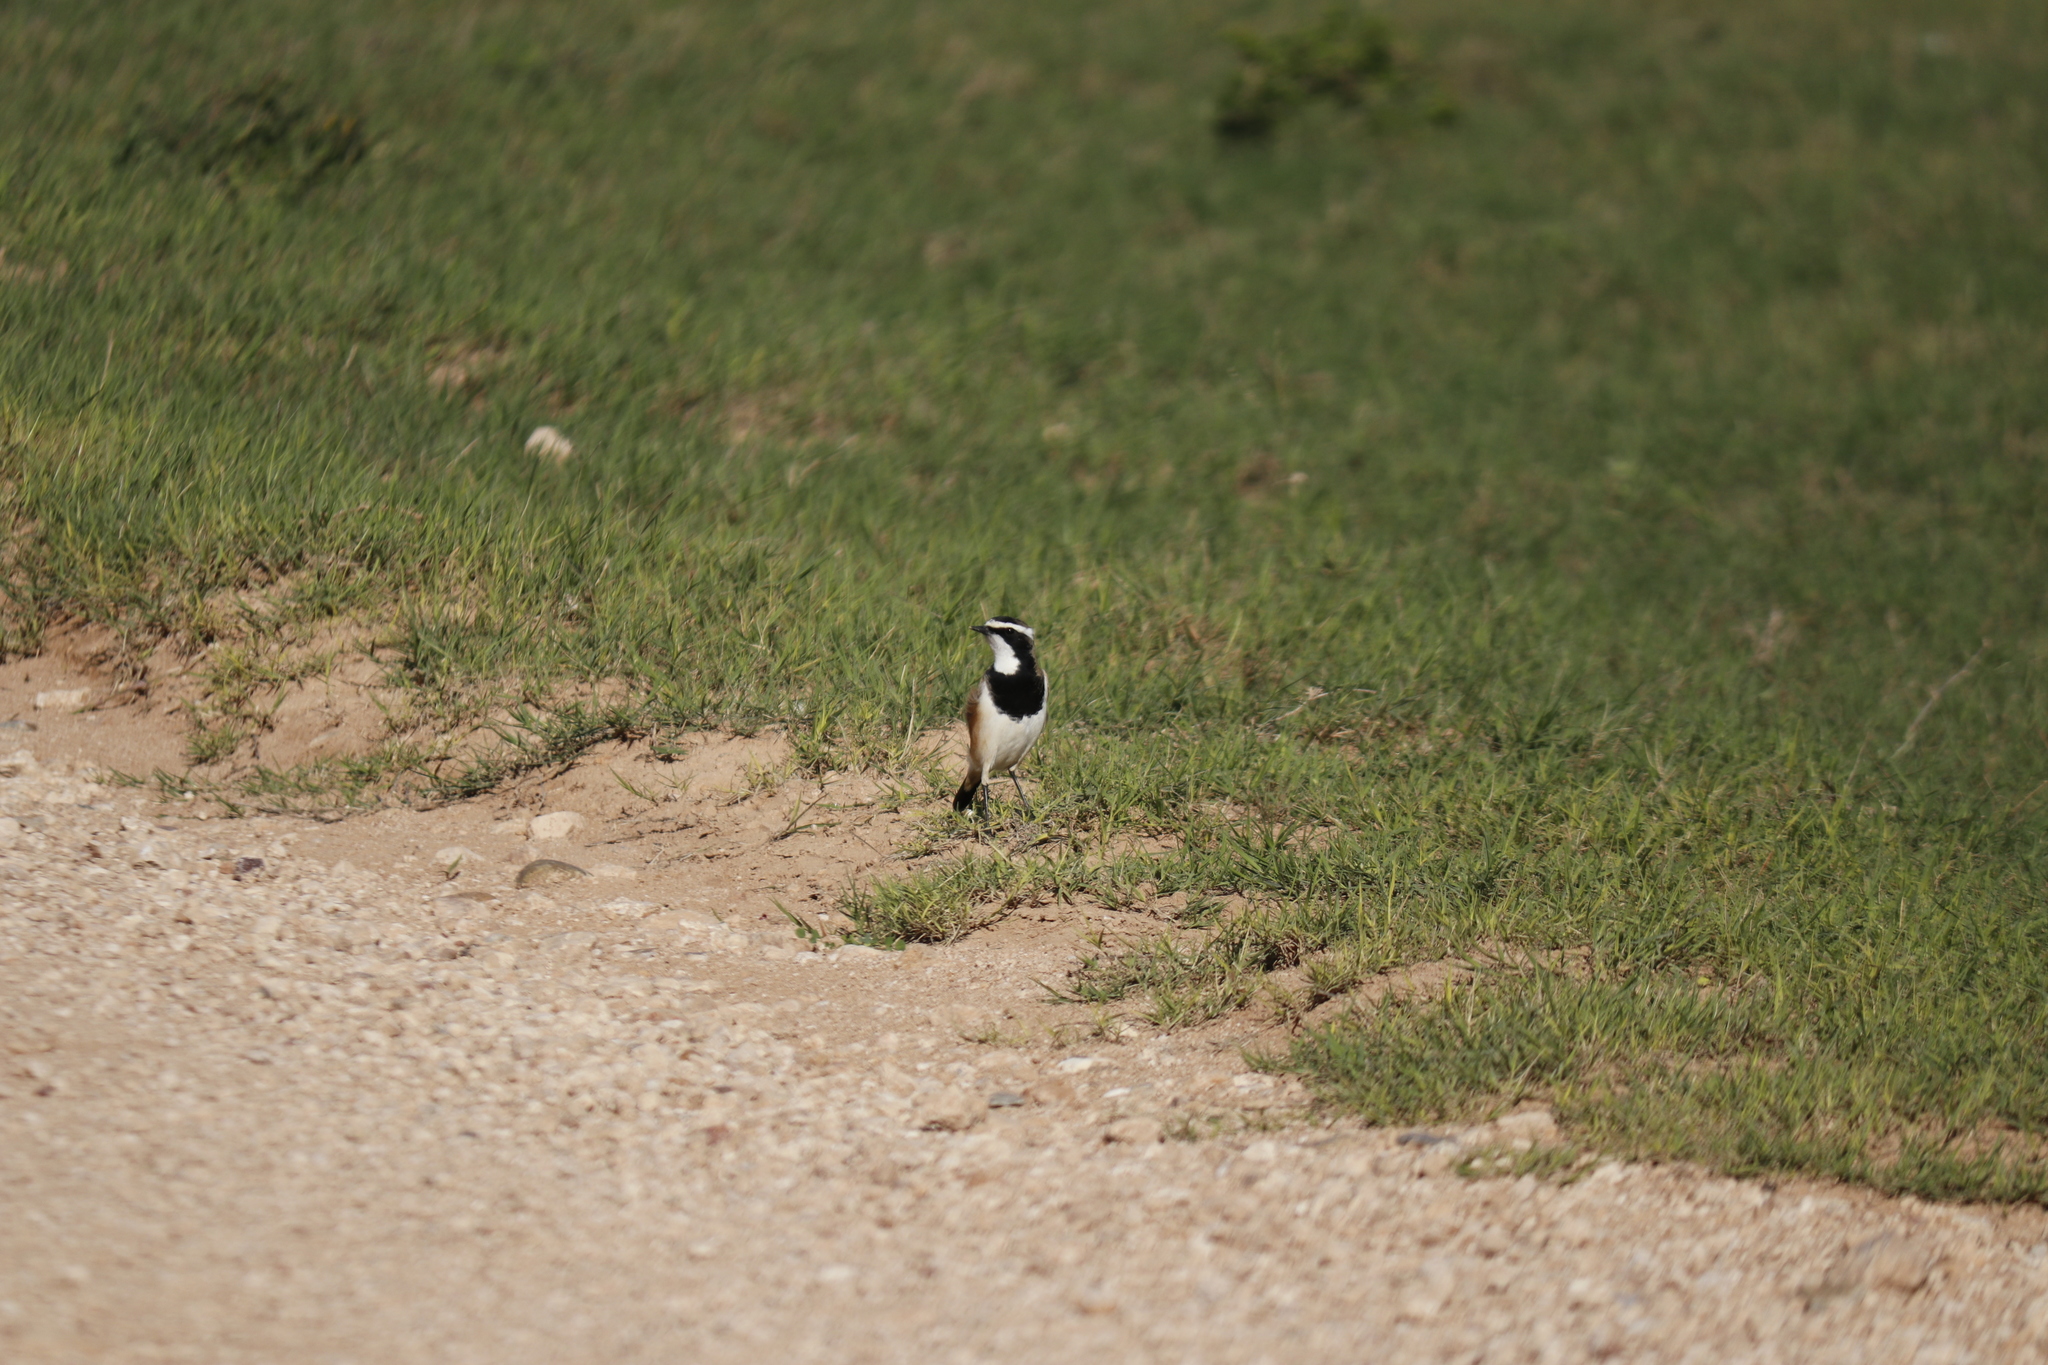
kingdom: Animalia
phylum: Chordata
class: Aves
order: Passeriformes
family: Muscicapidae
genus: Oenanthe
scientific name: Oenanthe pileata
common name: Capped wheatear
